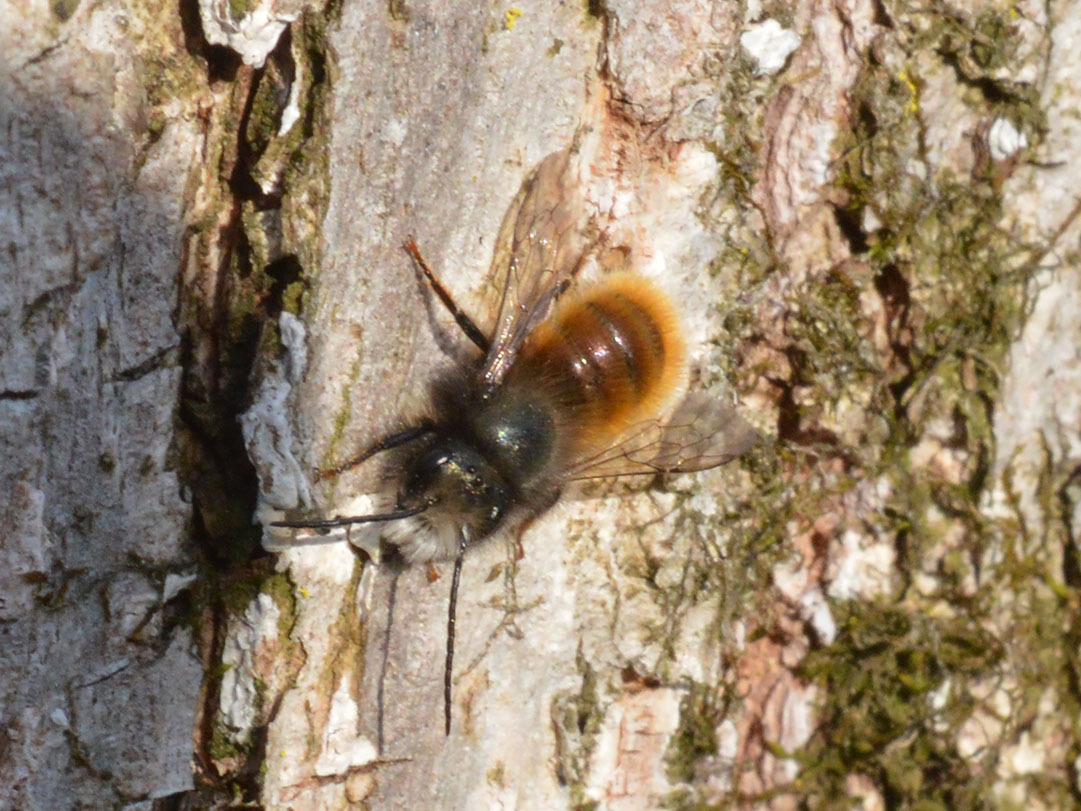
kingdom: Animalia
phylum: Arthropoda
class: Insecta
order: Hymenoptera
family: Megachilidae
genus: Osmia
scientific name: Osmia cornuta
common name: Mason bee
